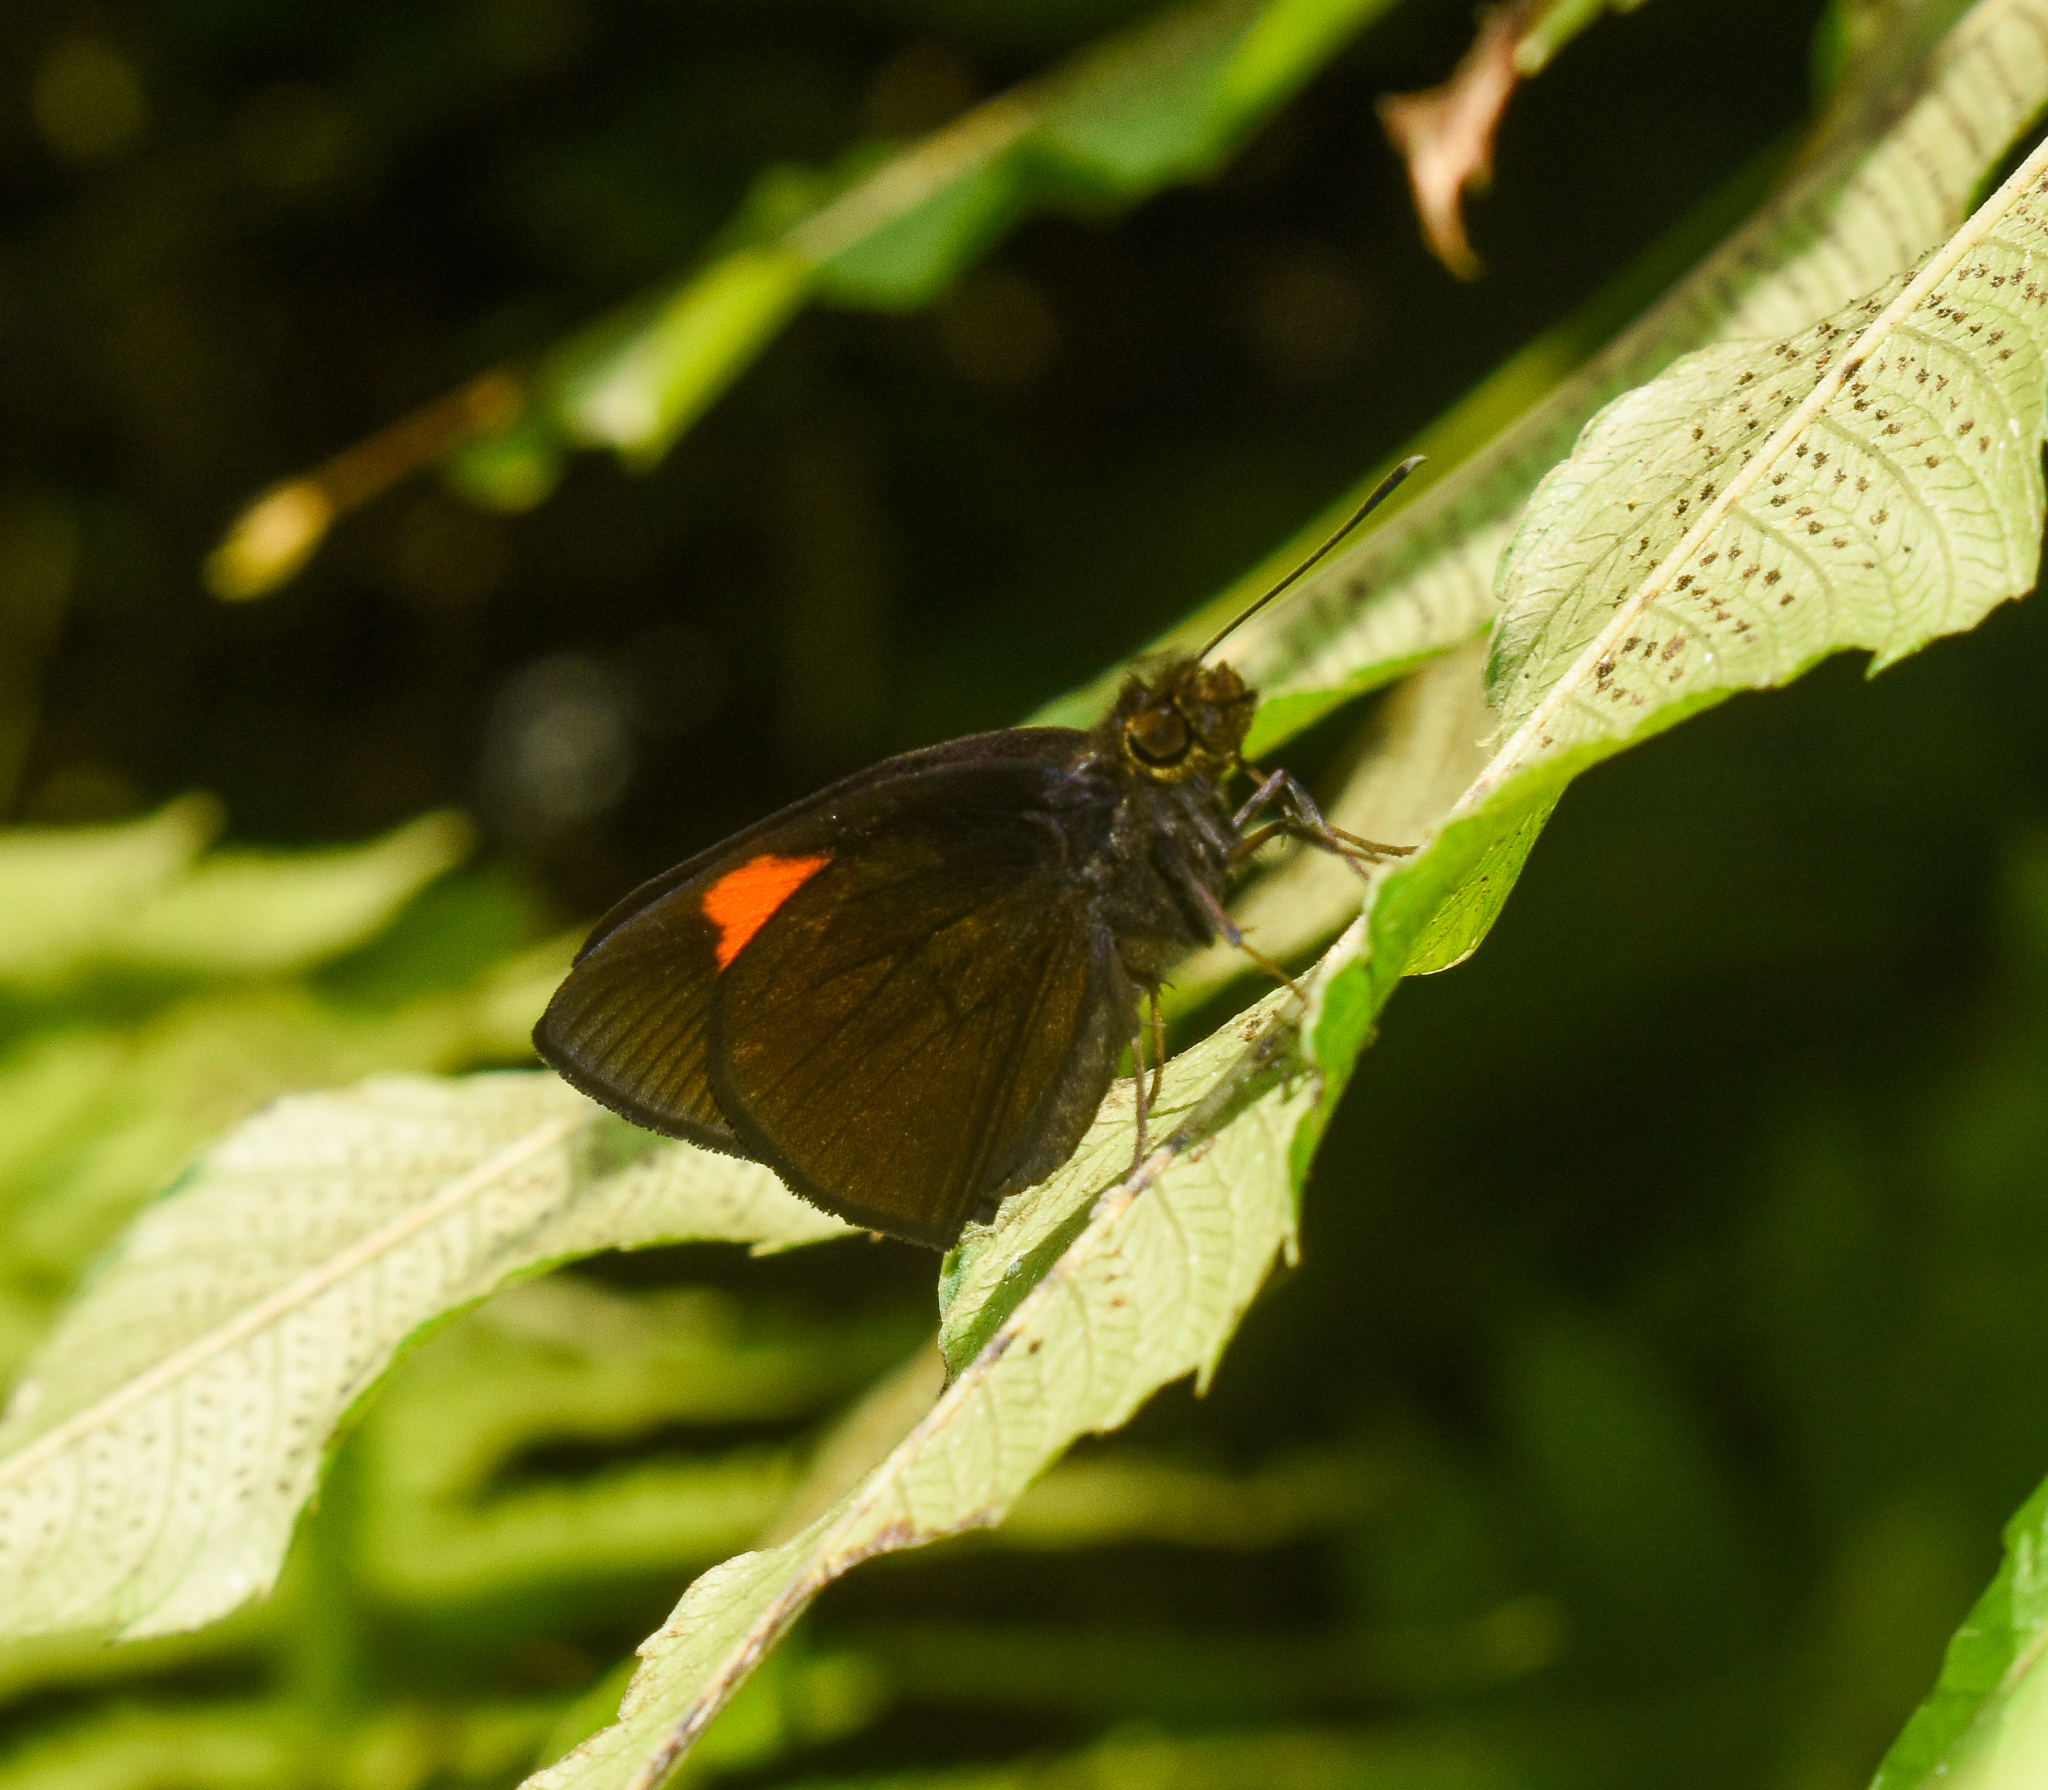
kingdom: Animalia
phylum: Arthropoda
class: Insecta
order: Lepidoptera
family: Hesperiidae
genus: Koruthaialos
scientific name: Koruthaialos sindu
